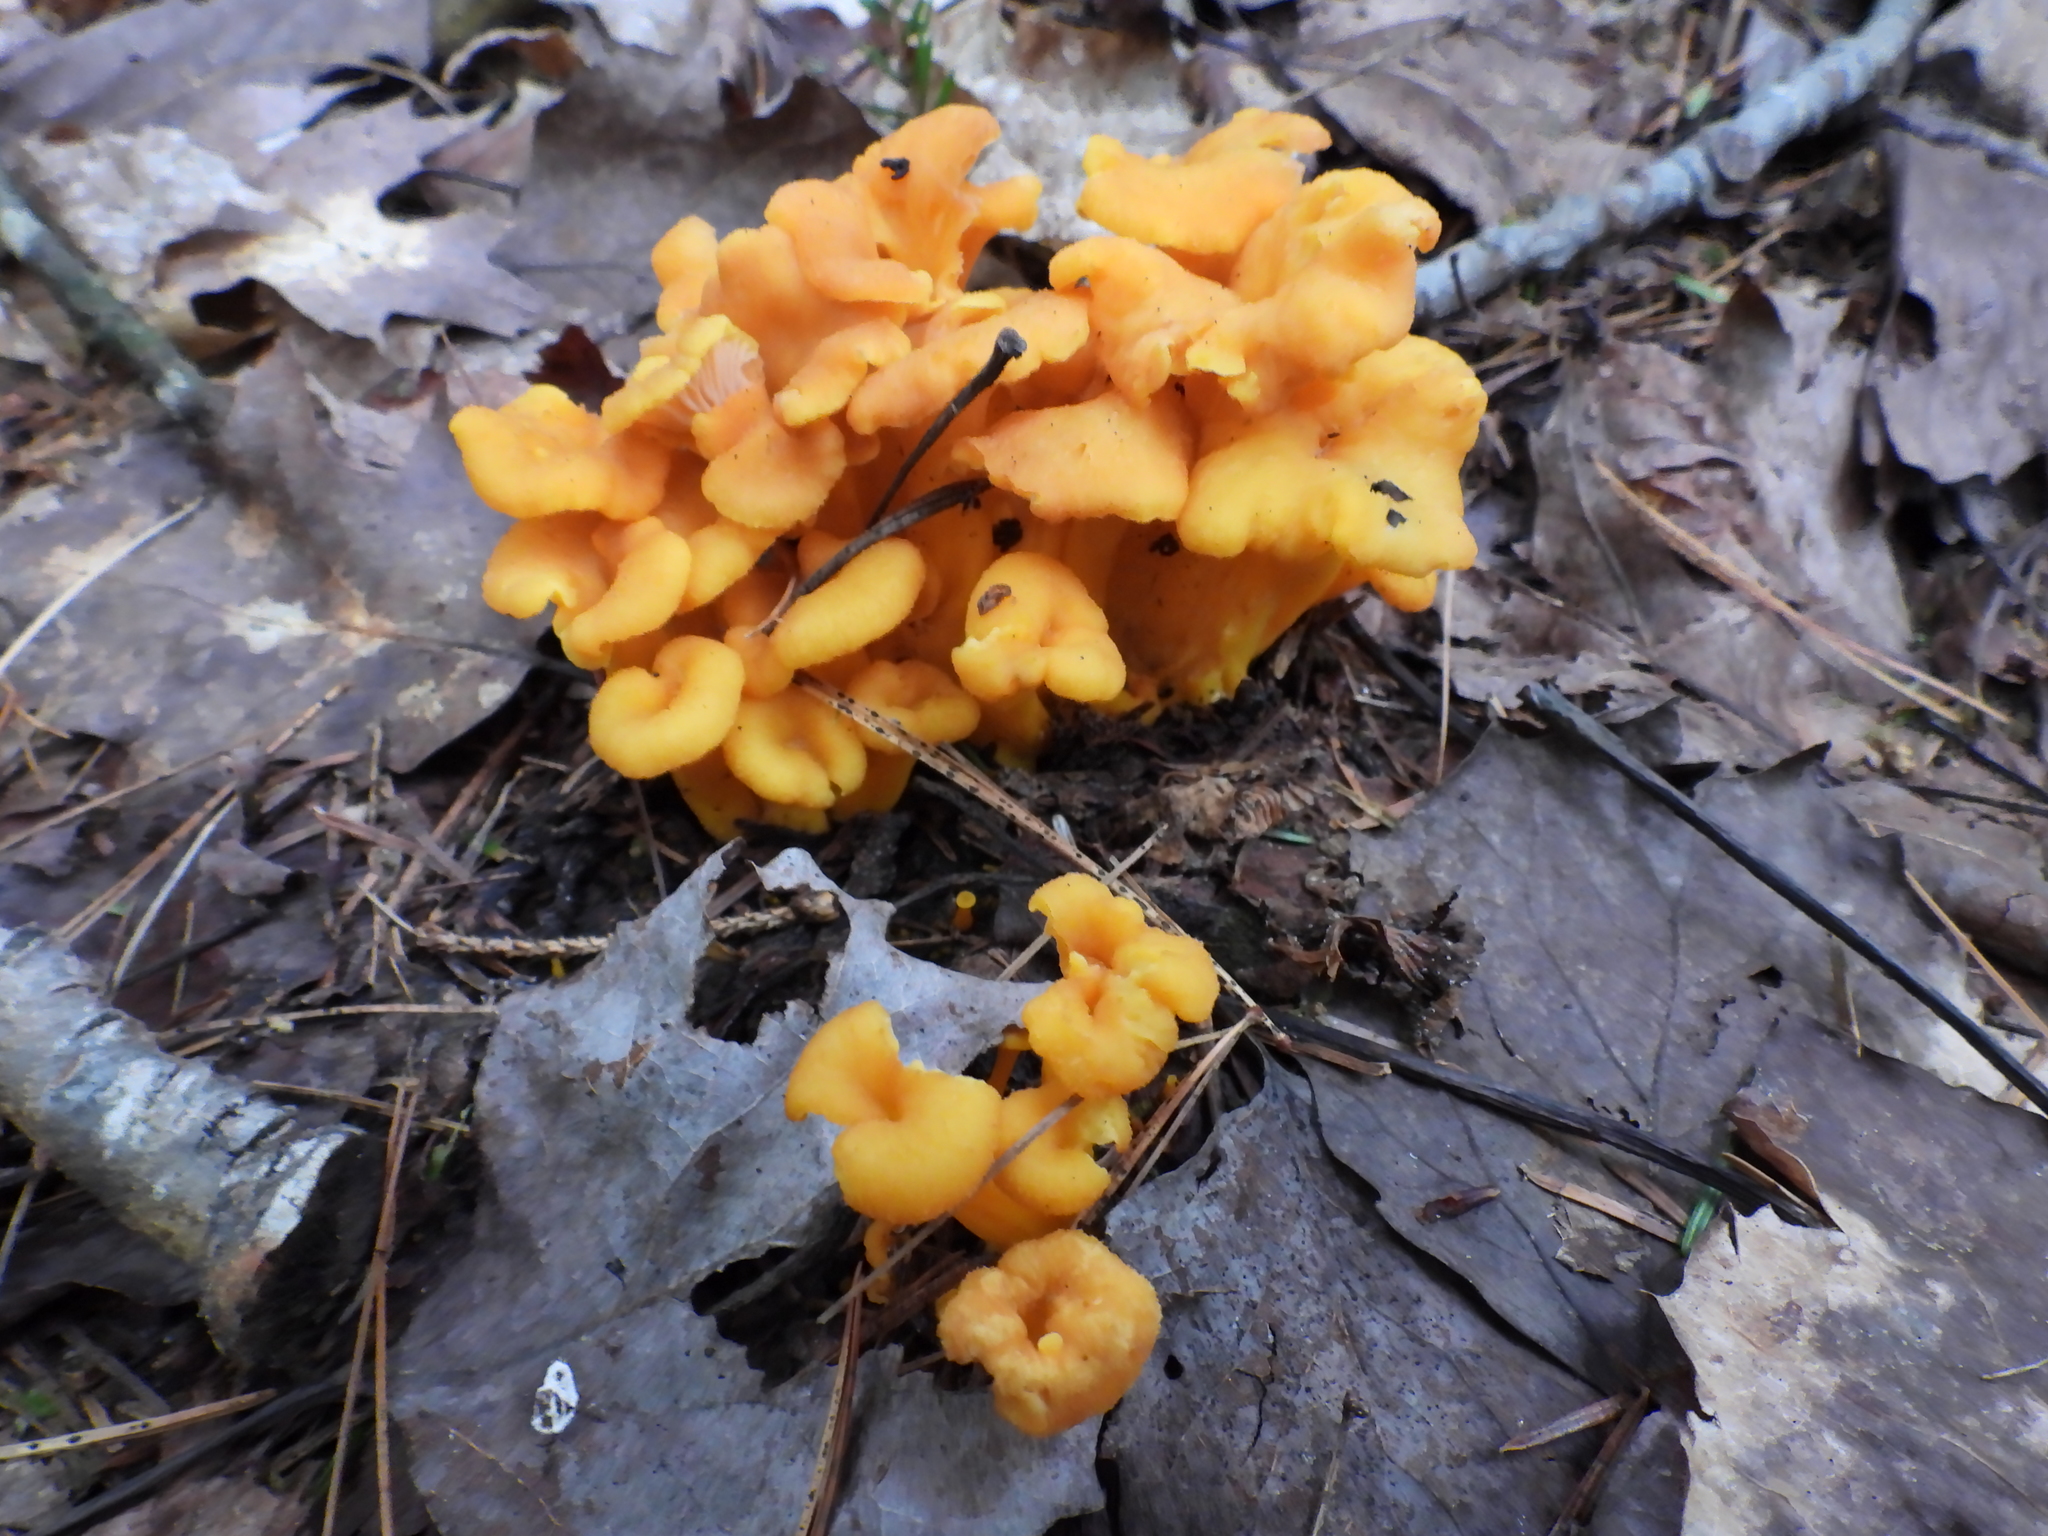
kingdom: Fungi
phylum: Basidiomycota
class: Agaricomycetes
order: Cantharellales
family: Hydnaceae
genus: Craterellus
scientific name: Craterellus ignicolor
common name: Flame chanterelle
